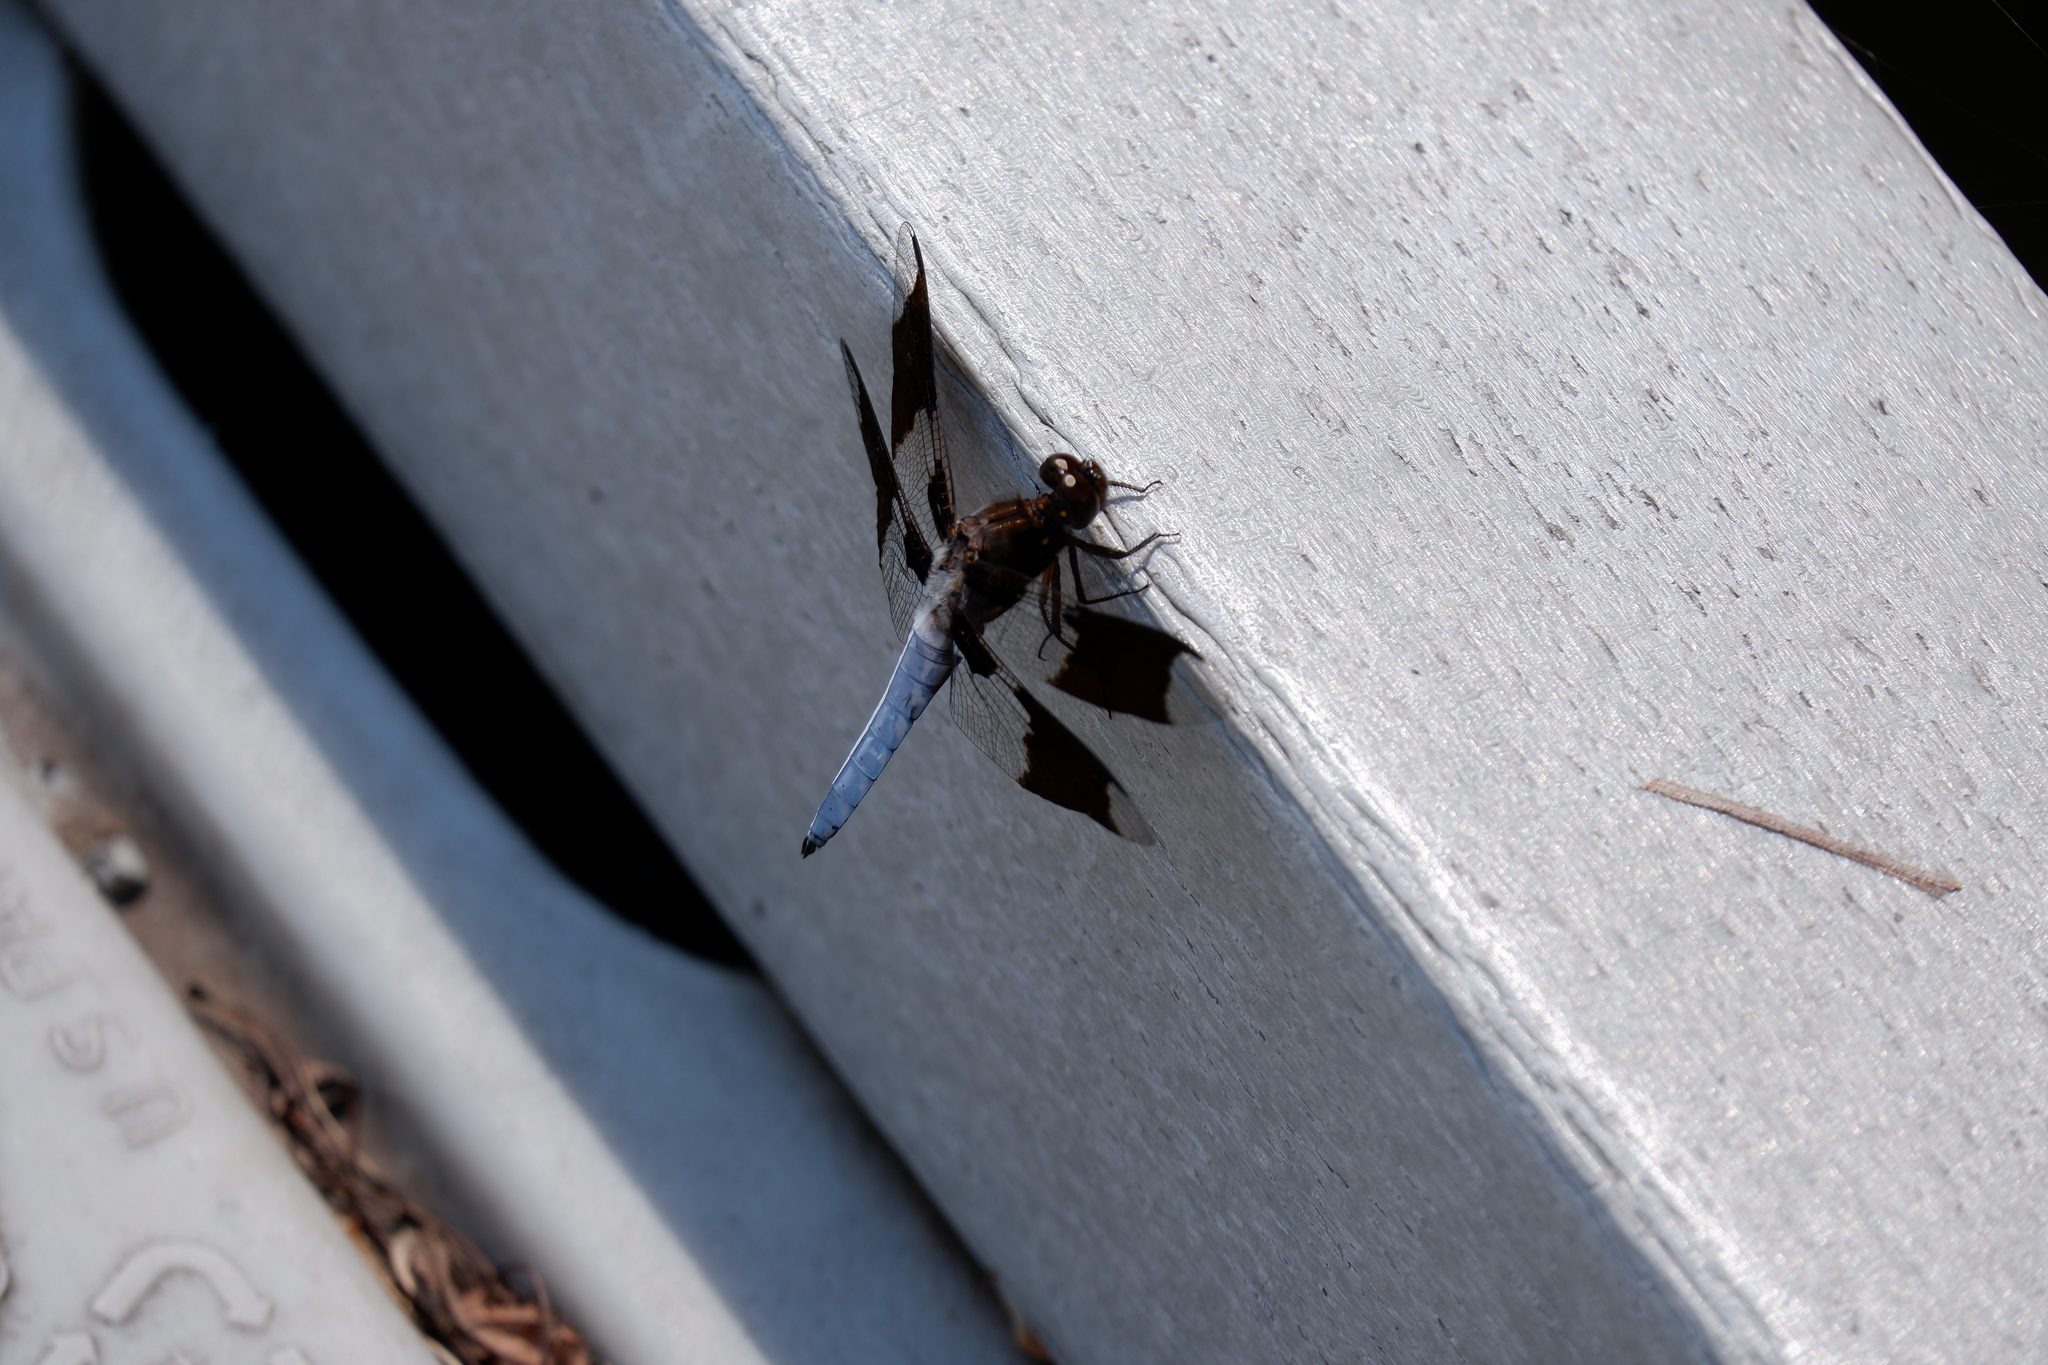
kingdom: Animalia
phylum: Arthropoda
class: Insecta
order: Odonata
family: Libellulidae
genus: Plathemis
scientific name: Plathemis lydia
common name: Common whitetail
